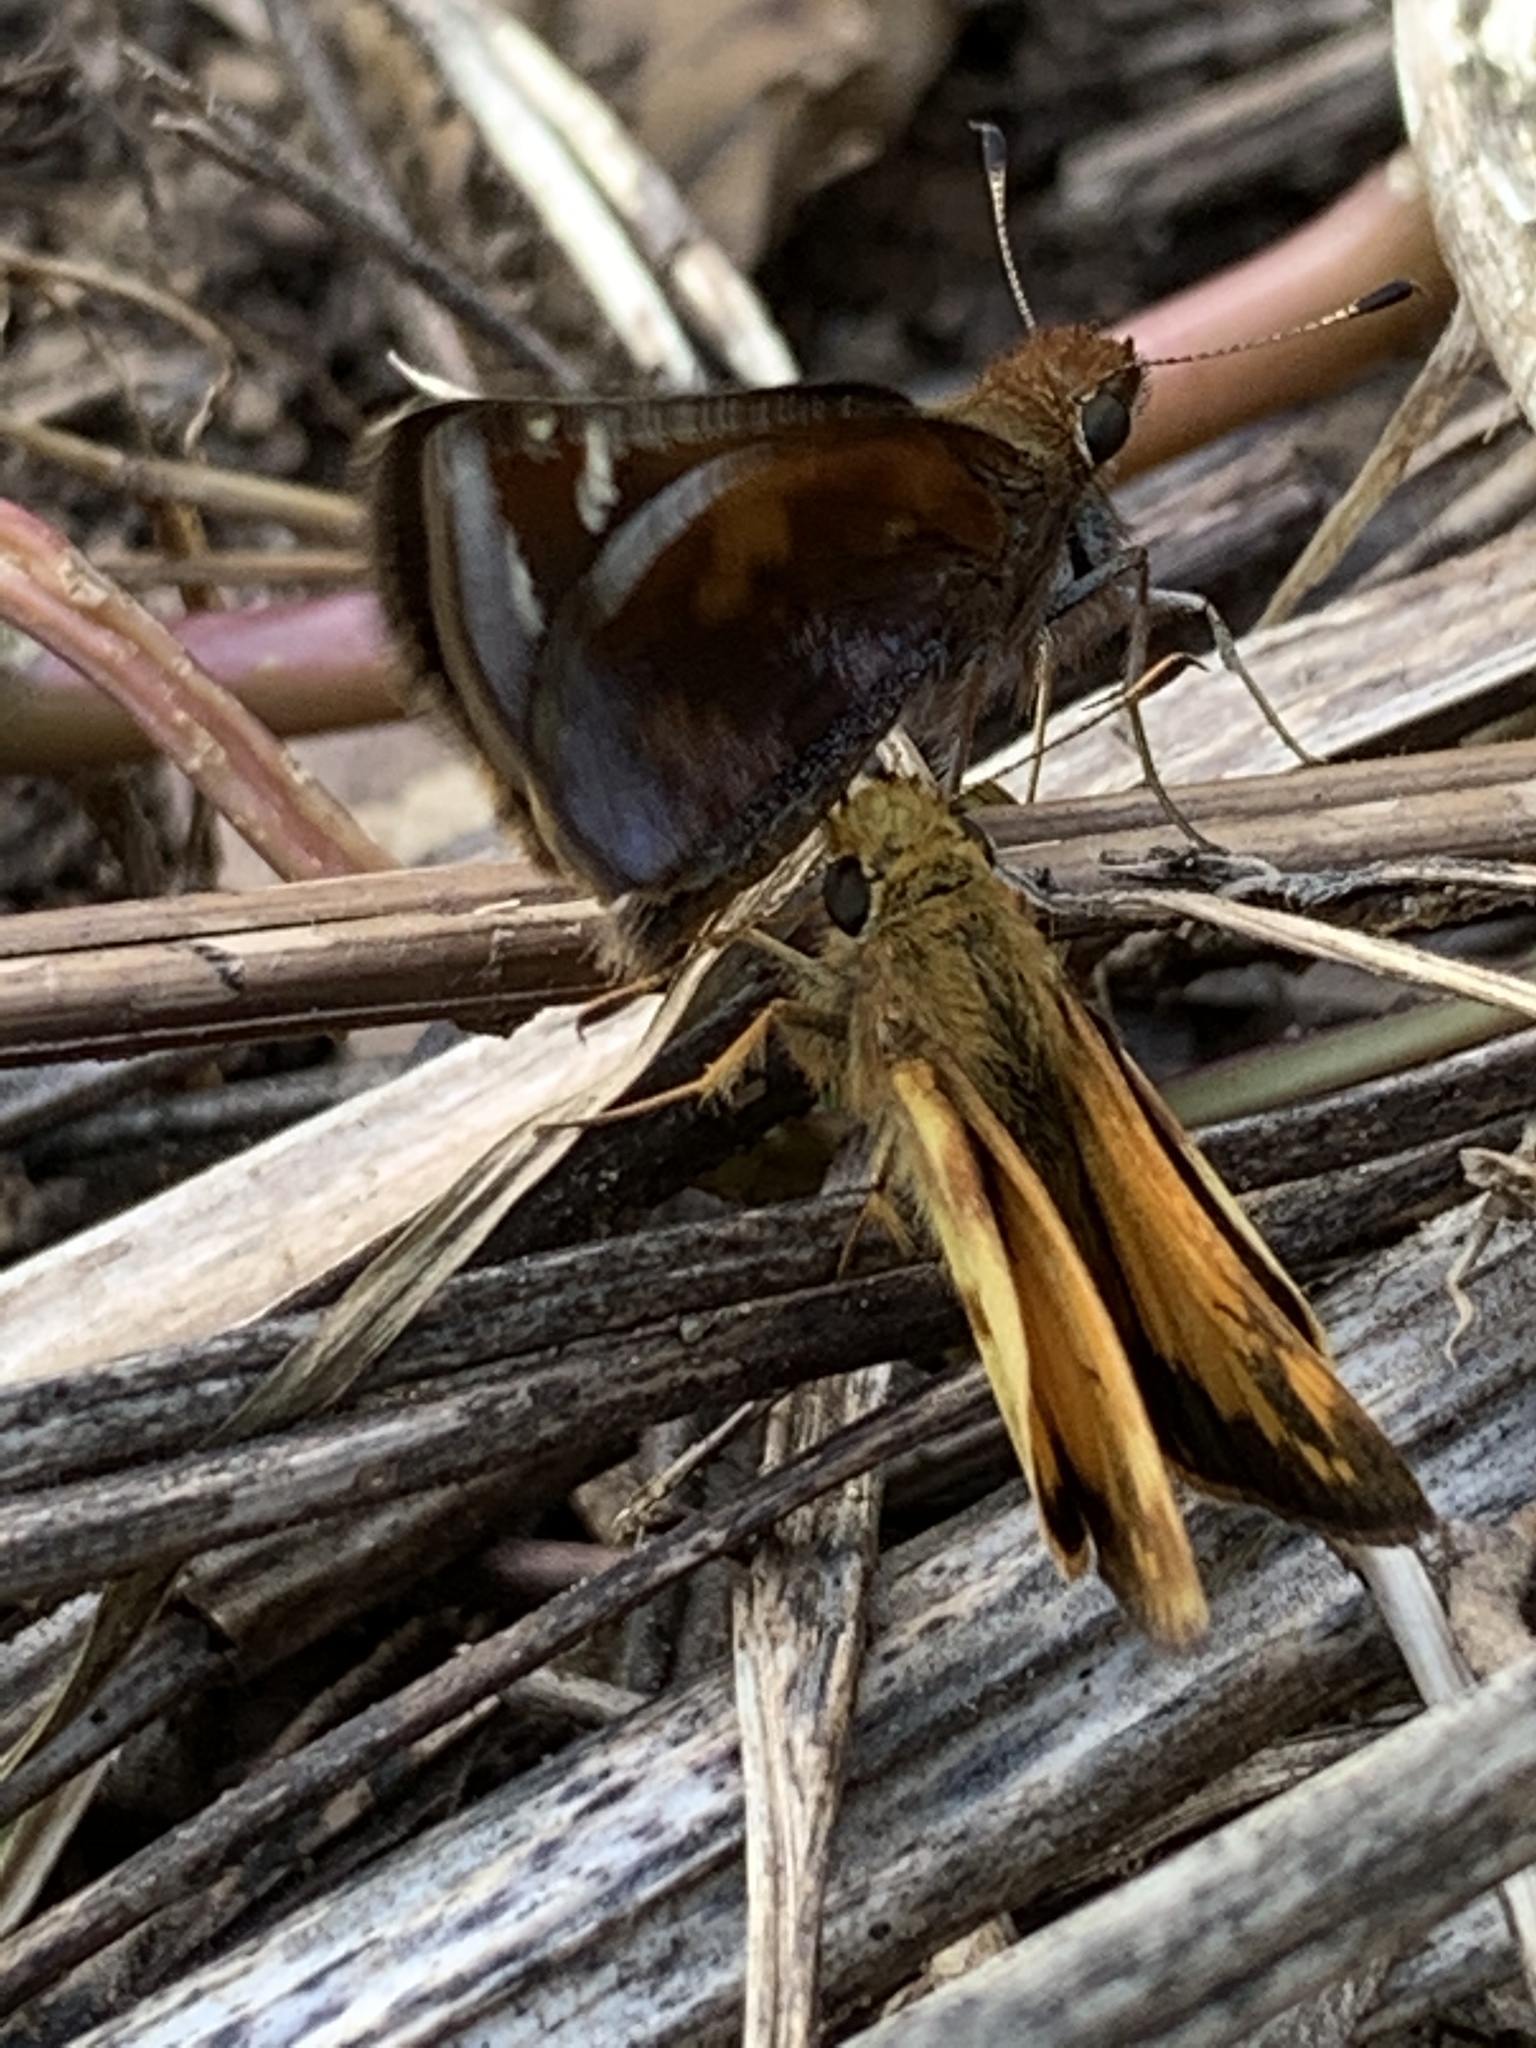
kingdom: Animalia
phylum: Arthropoda
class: Insecta
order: Lepidoptera
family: Hesperiidae
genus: Lon
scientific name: Lon zabulon
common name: Zabulon skipper
